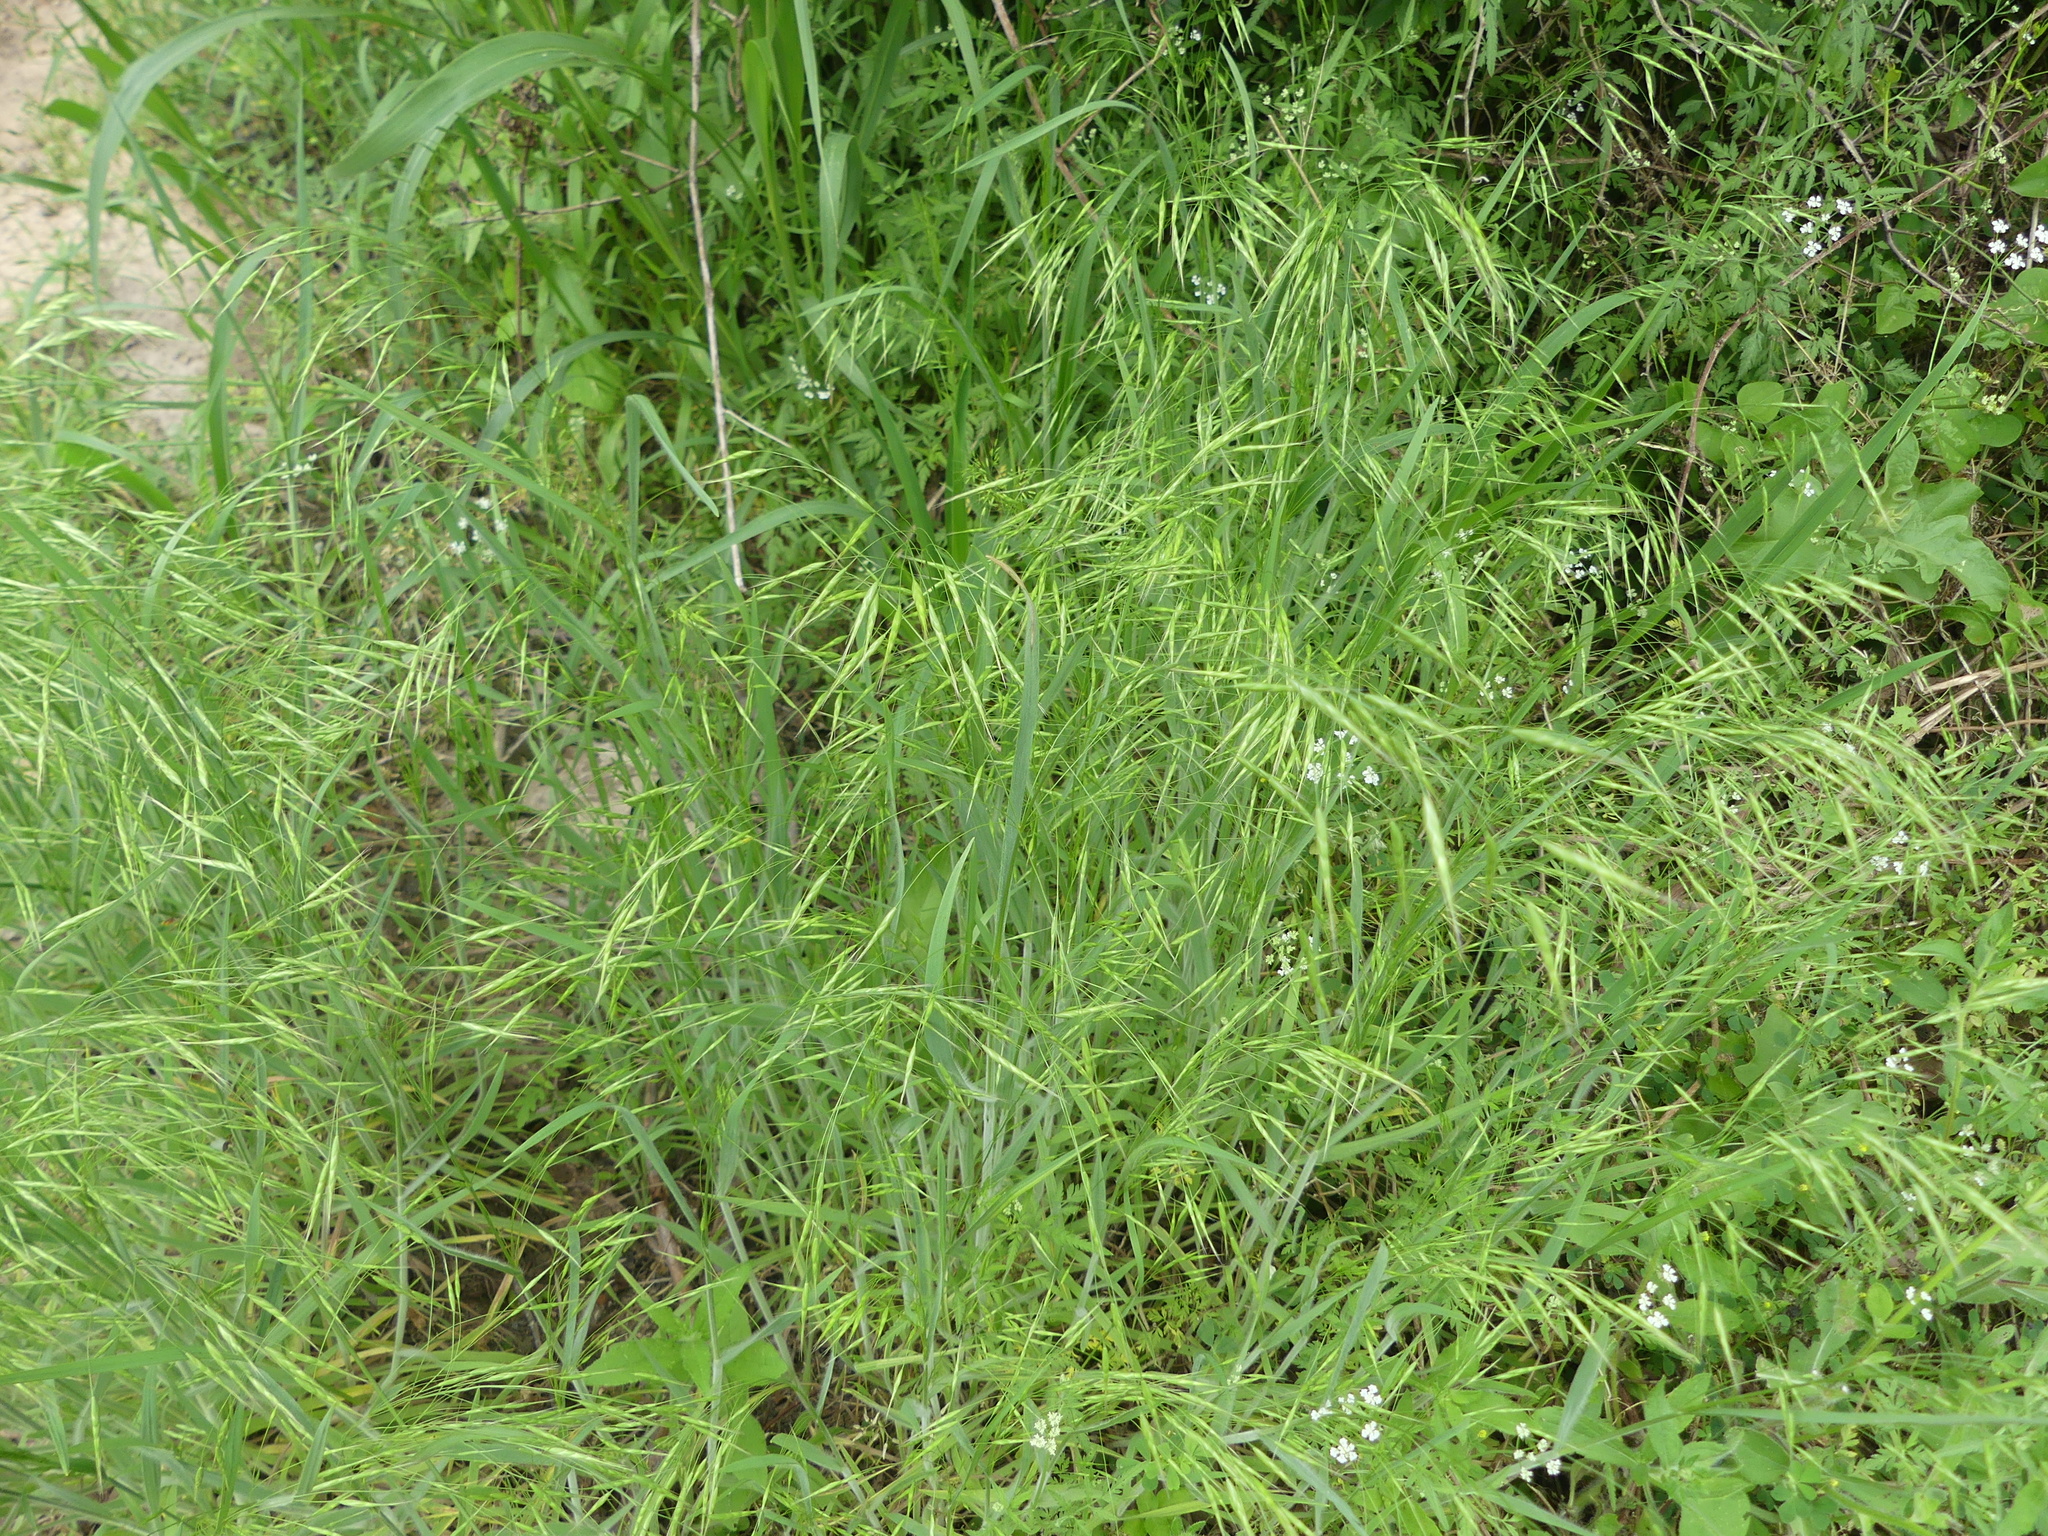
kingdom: Plantae
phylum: Tracheophyta
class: Liliopsida
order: Poales
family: Poaceae
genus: Bromus
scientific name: Bromus japonicus
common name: Japanese brome
